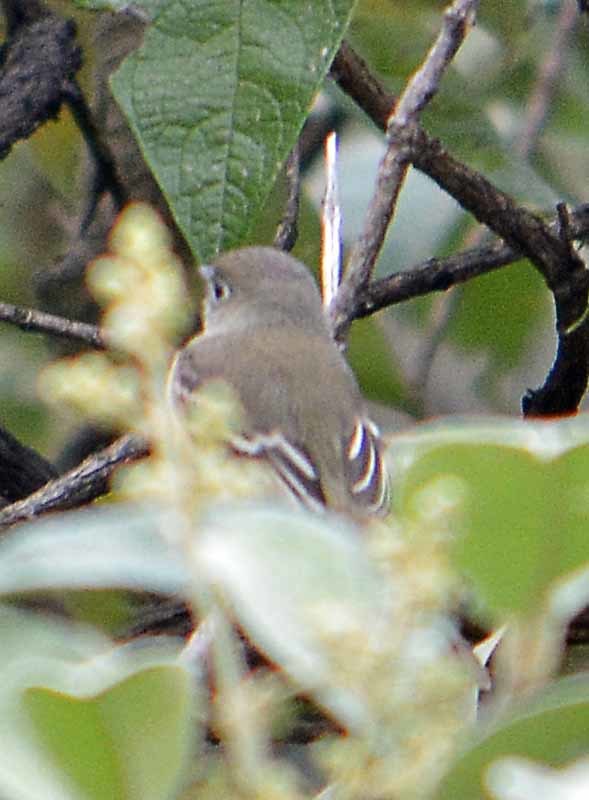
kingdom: Animalia
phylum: Chordata
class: Aves
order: Passeriformes
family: Tyrannidae
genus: Empidonax
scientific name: Empidonax difficilis
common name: Pacific-slope flycatcher
